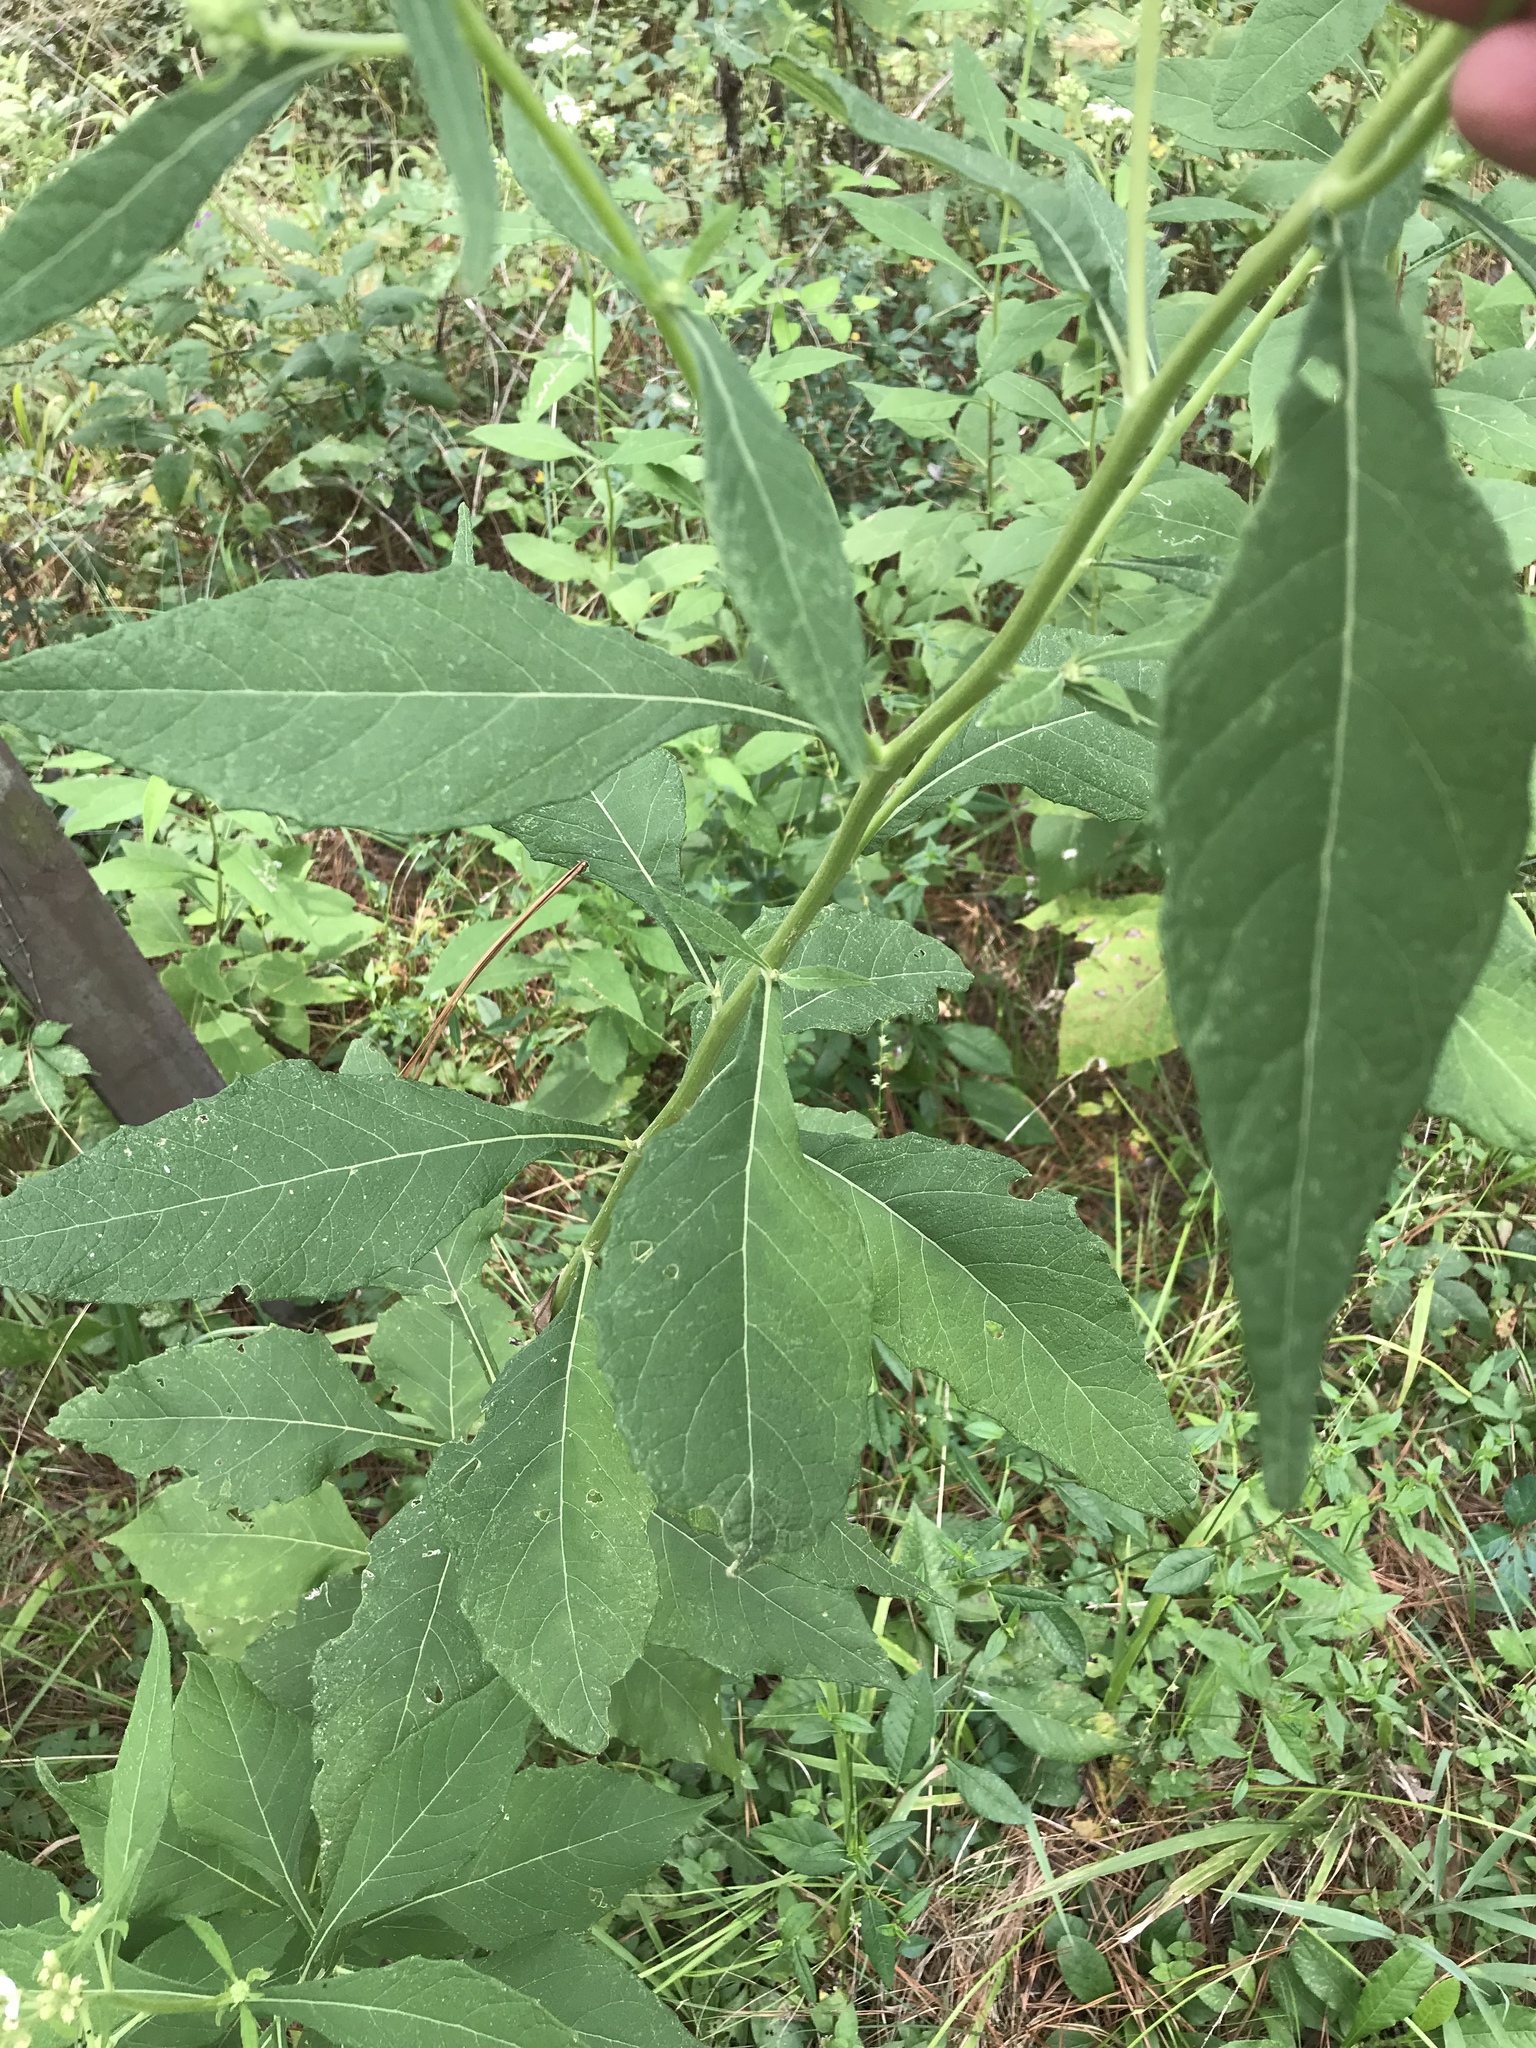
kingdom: Plantae
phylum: Tracheophyta
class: Magnoliopsida
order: Asterales
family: Asteraceae
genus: Verbesina
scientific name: Verbesina virginica
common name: Frostweed
